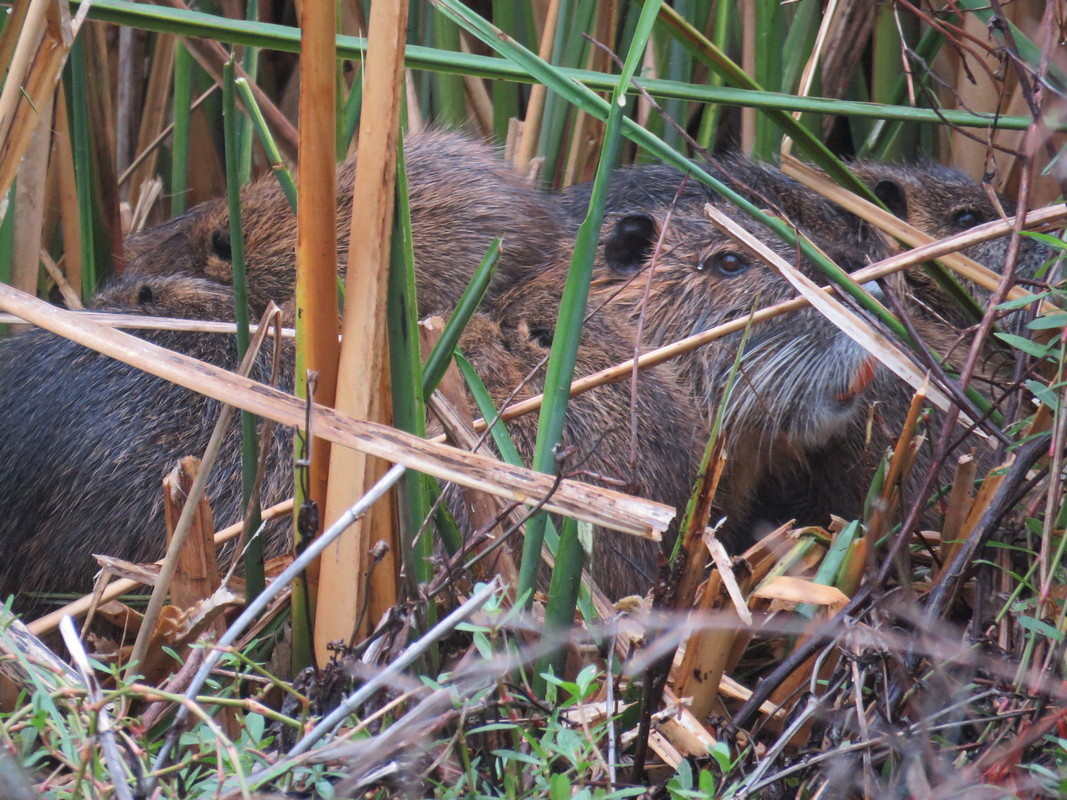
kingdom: Animalia
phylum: Chordata
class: Mammalia
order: Rodentia
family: Myocastoridae
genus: Myocastor
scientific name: Myocastor coypus
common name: Coypu
